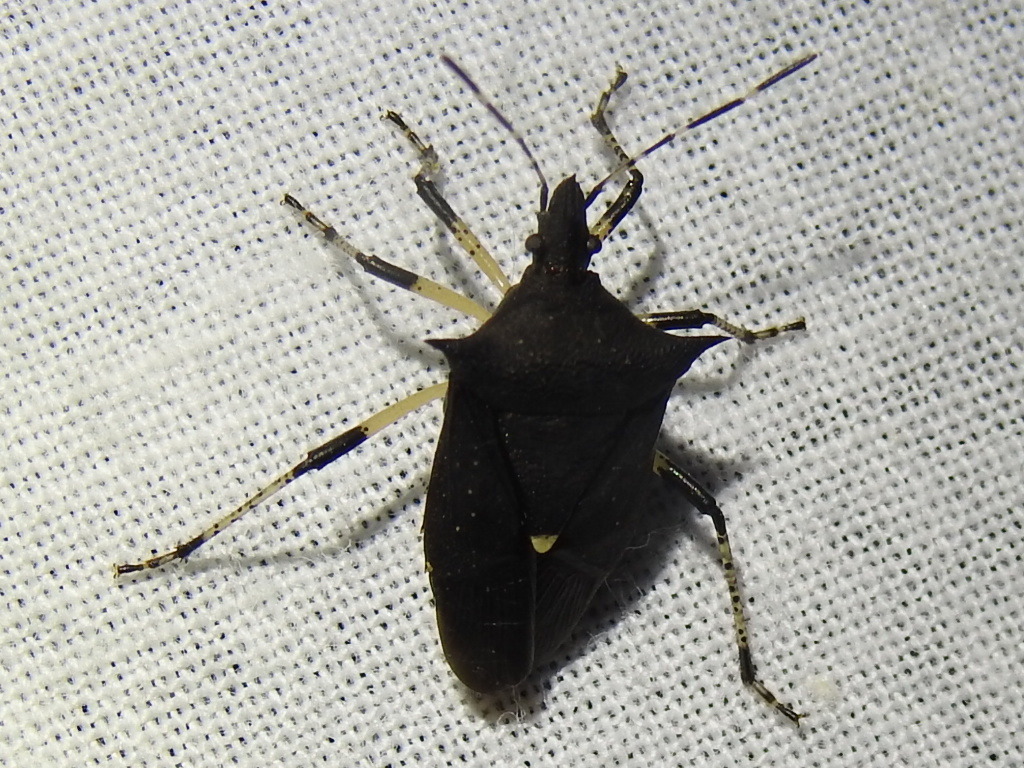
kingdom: Animalia
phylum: Arthropoda
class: Insecta
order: Hemiptera
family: Pentatomidae
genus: Proxys
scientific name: Proxys punctulatus
